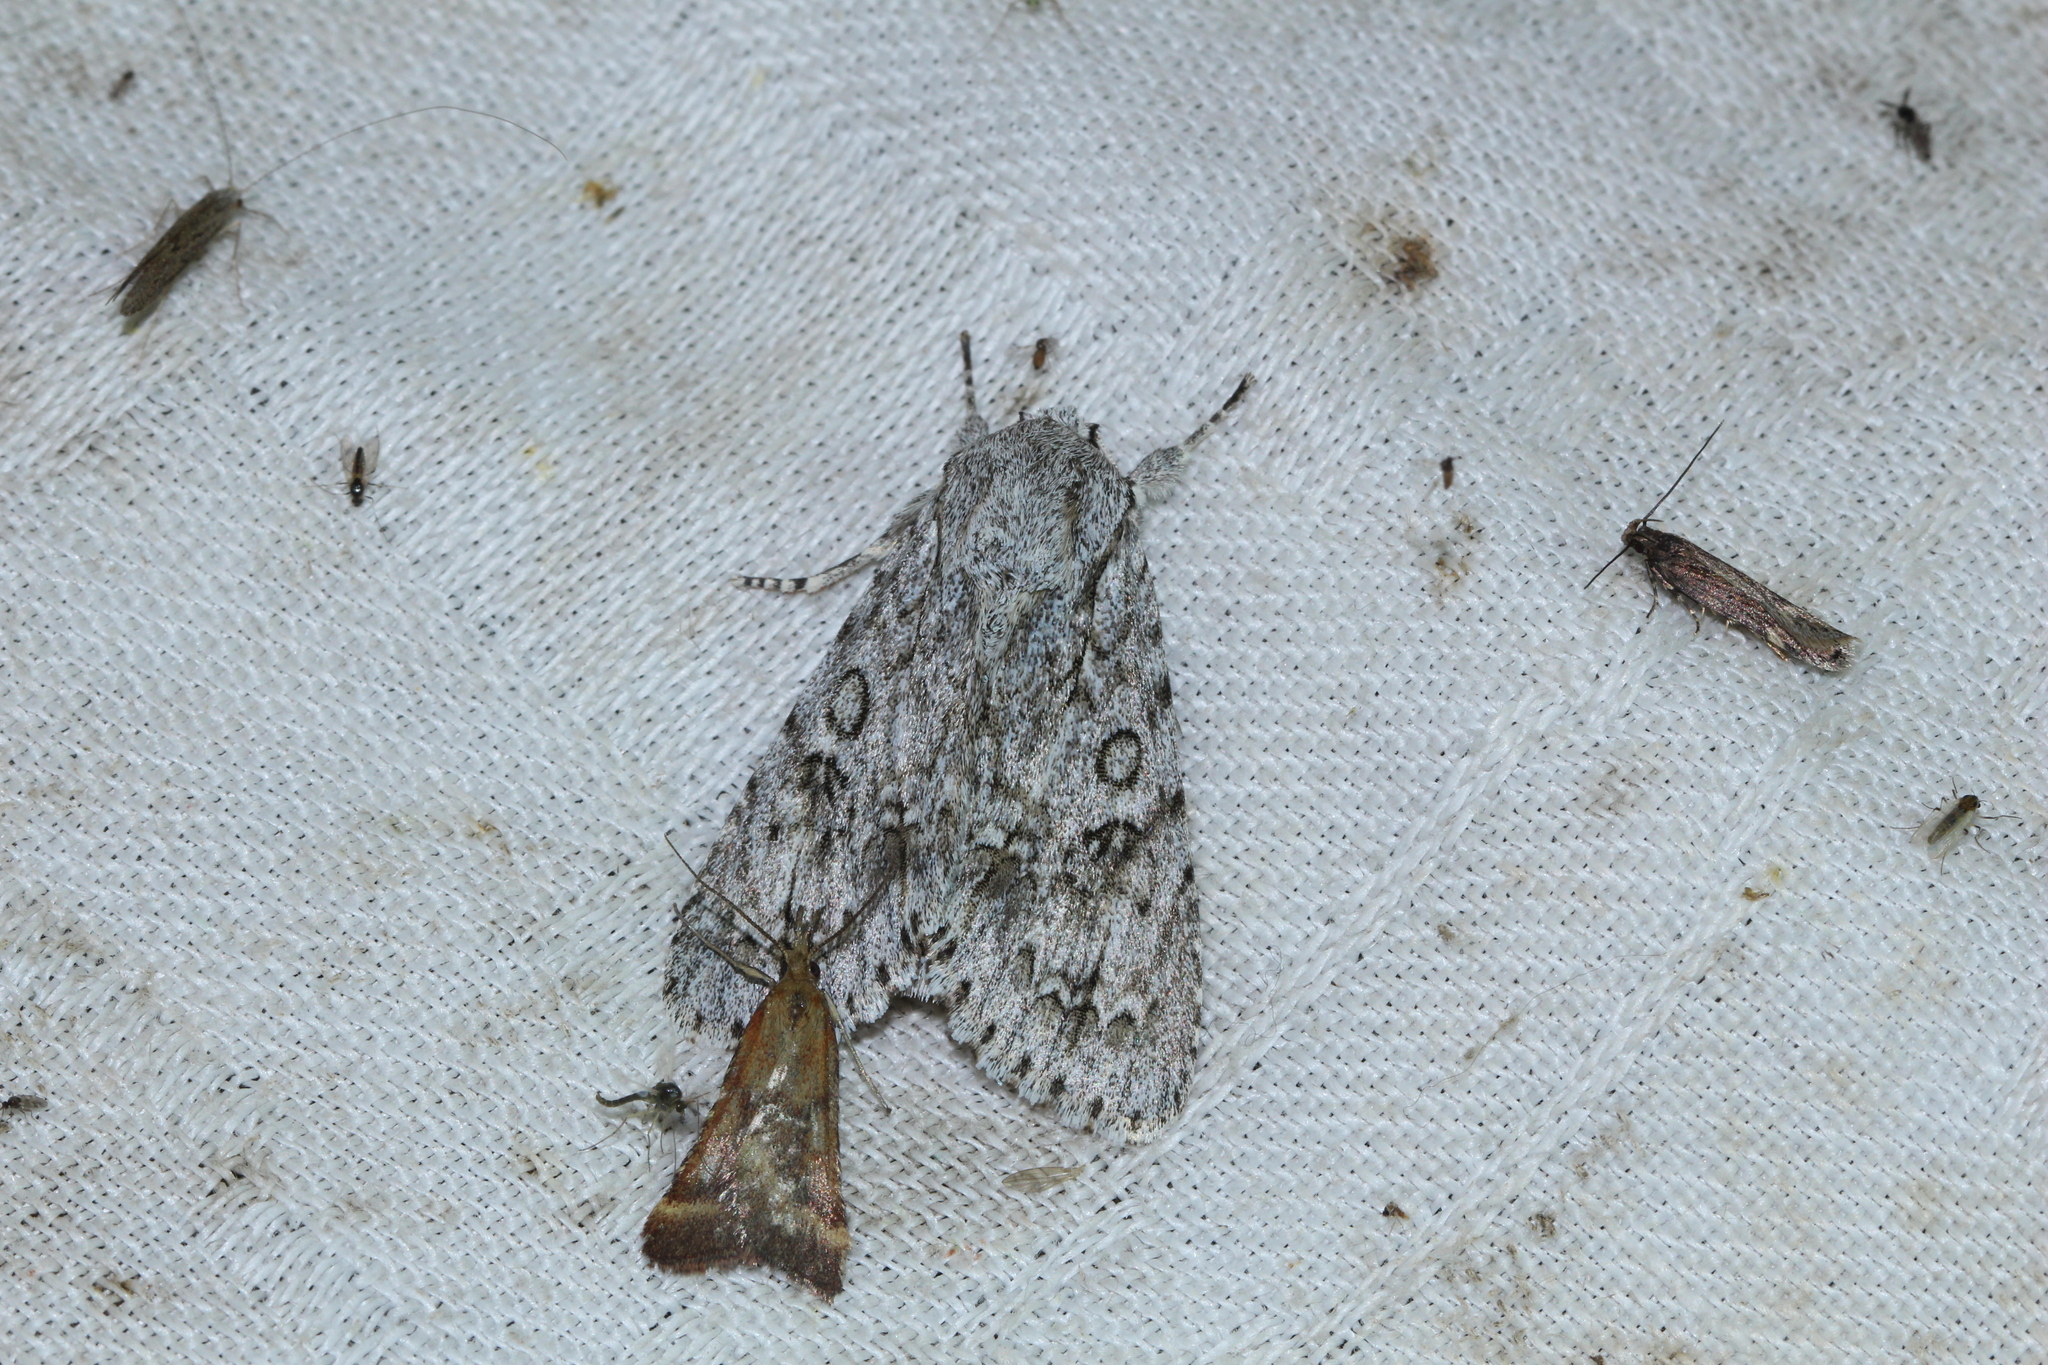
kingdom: Animalia
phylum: Arthropoda
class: Insecta
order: Lepidoptera
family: Noctuidae
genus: Acronicta
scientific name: Acronicta aceris
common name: Sycamore
